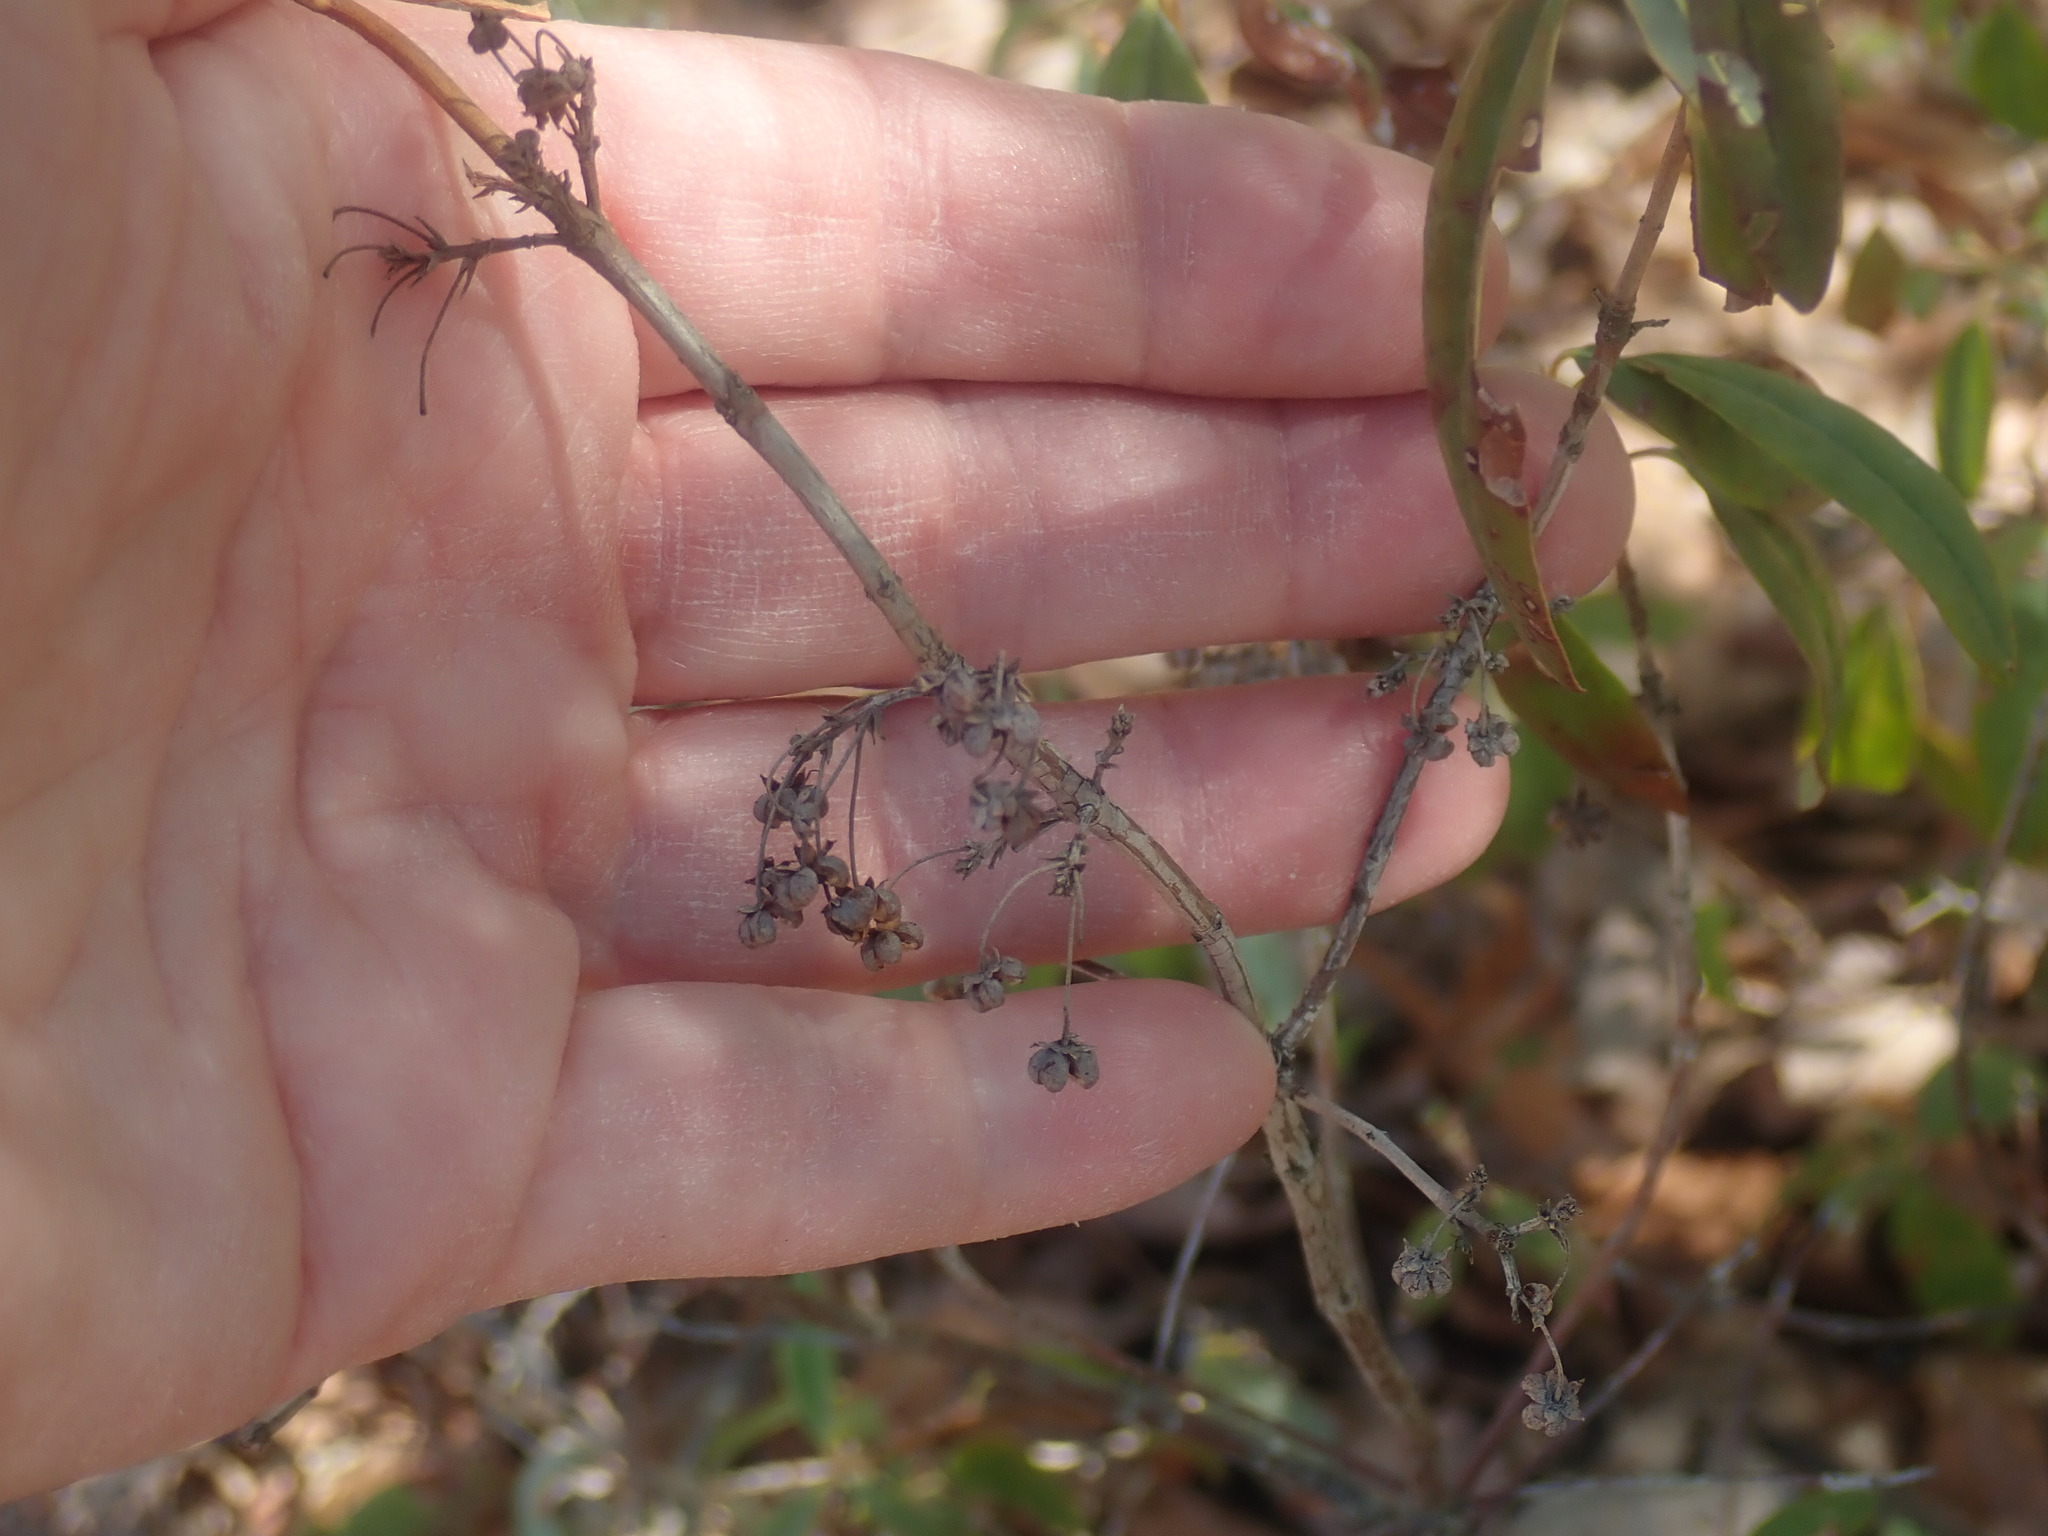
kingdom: Plantae
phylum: Tracheophyta
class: Magnoliopsida
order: Ericales
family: Ericaceae
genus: Kalmia
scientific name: Kalmia angustifolia
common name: Sheep-laurel
